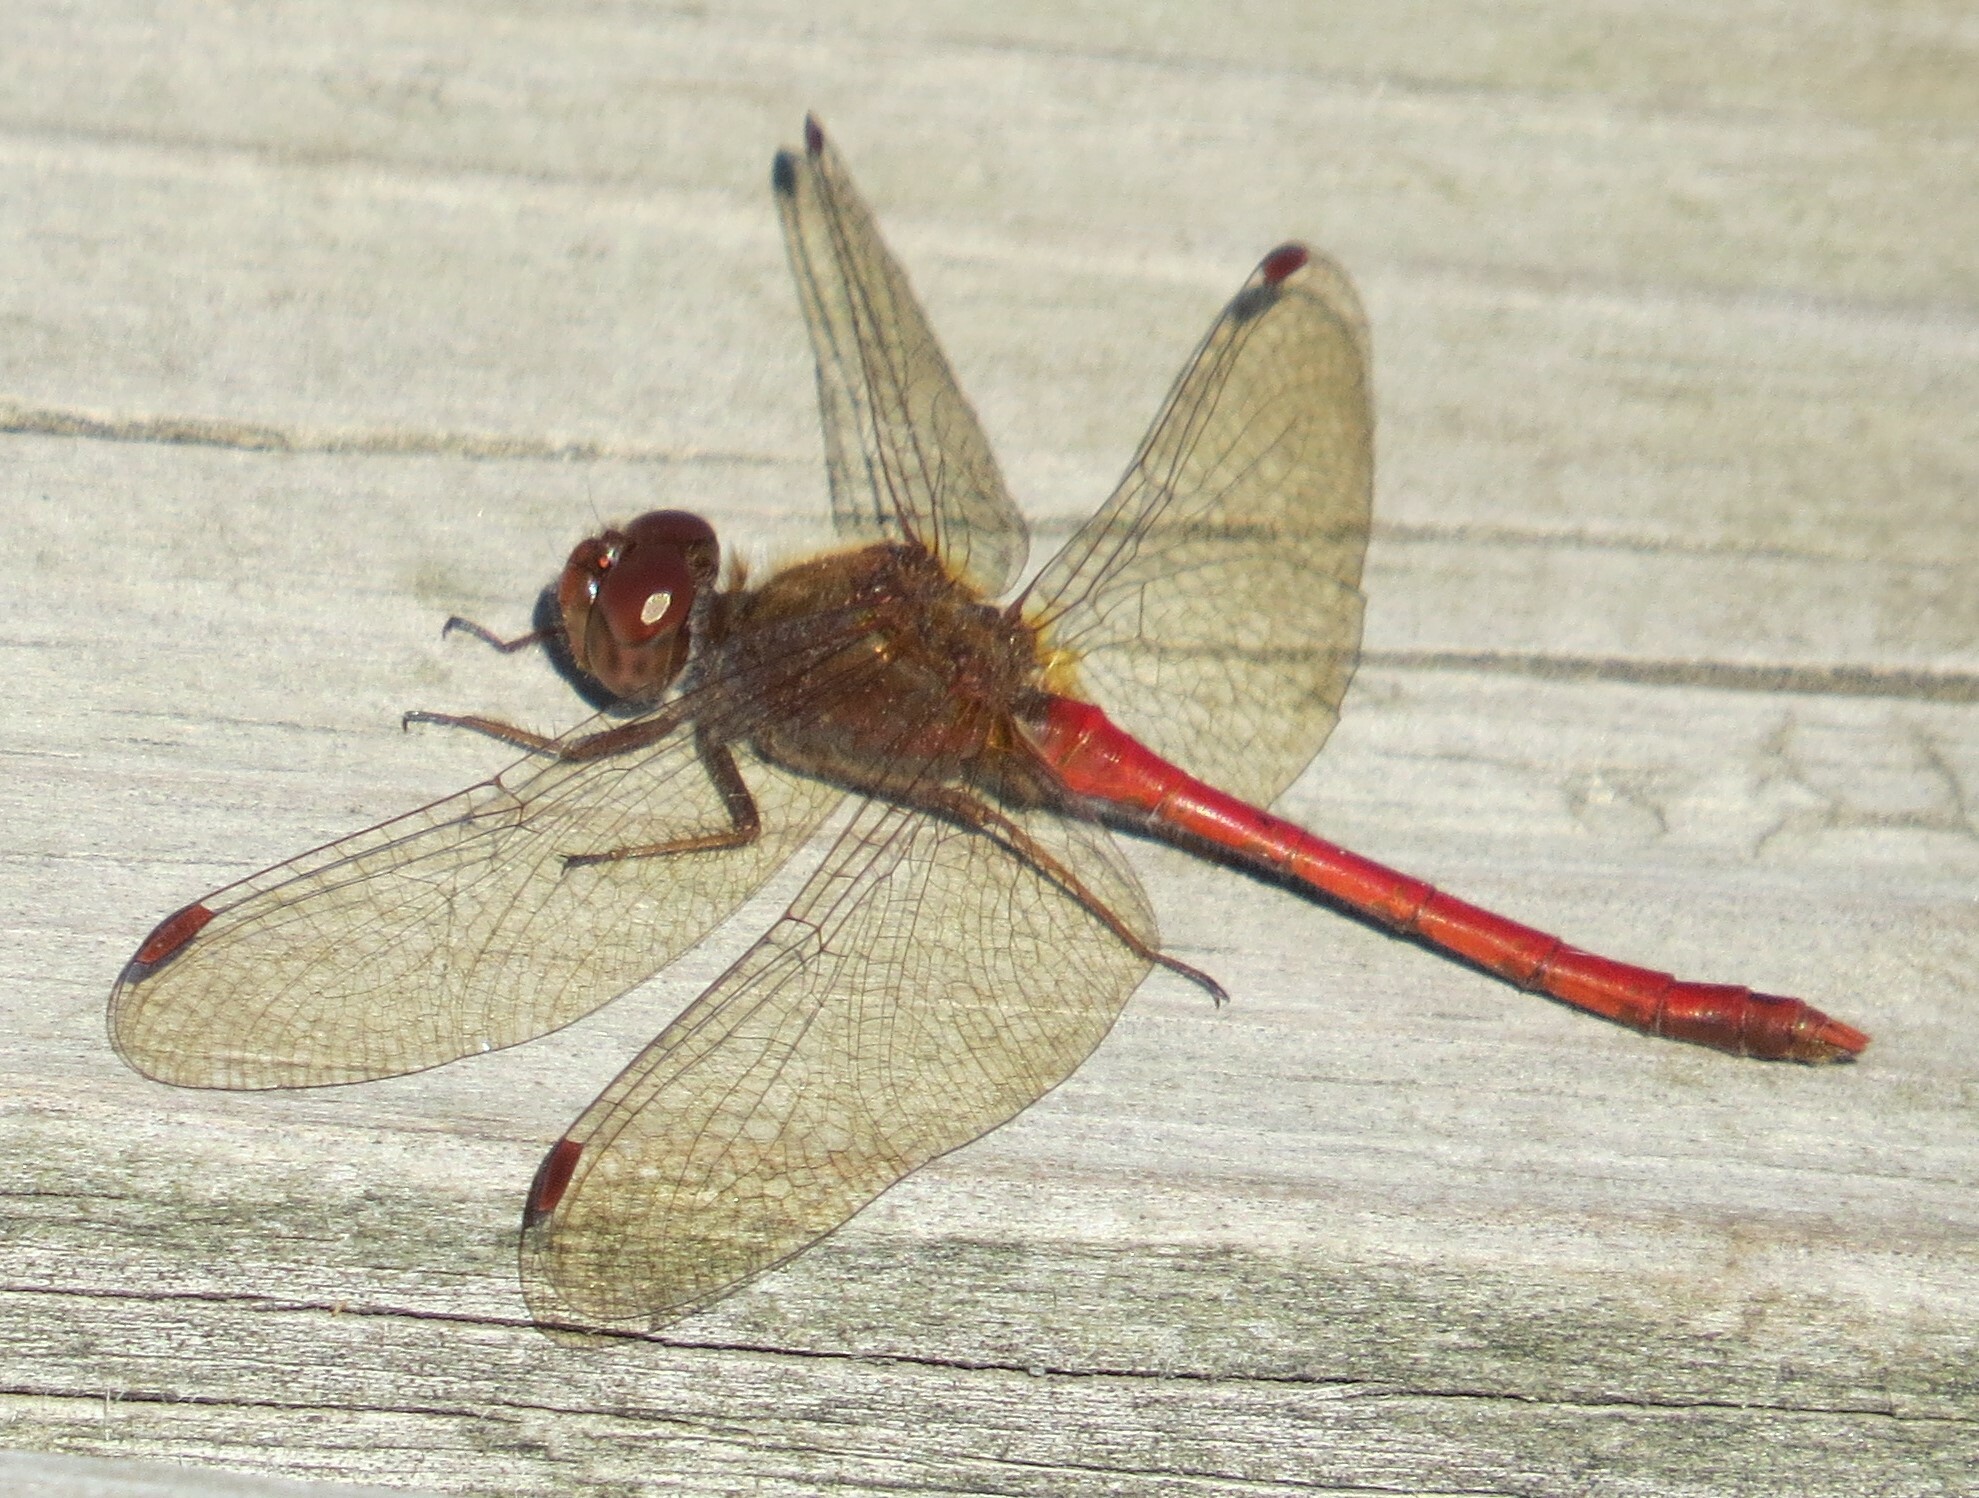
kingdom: Animalia
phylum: Arthropoda
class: Insecta
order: Odonata
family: Libellulidae
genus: Sympetrum
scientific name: Sympetrum vicinum
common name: Autumn meadowhawk
